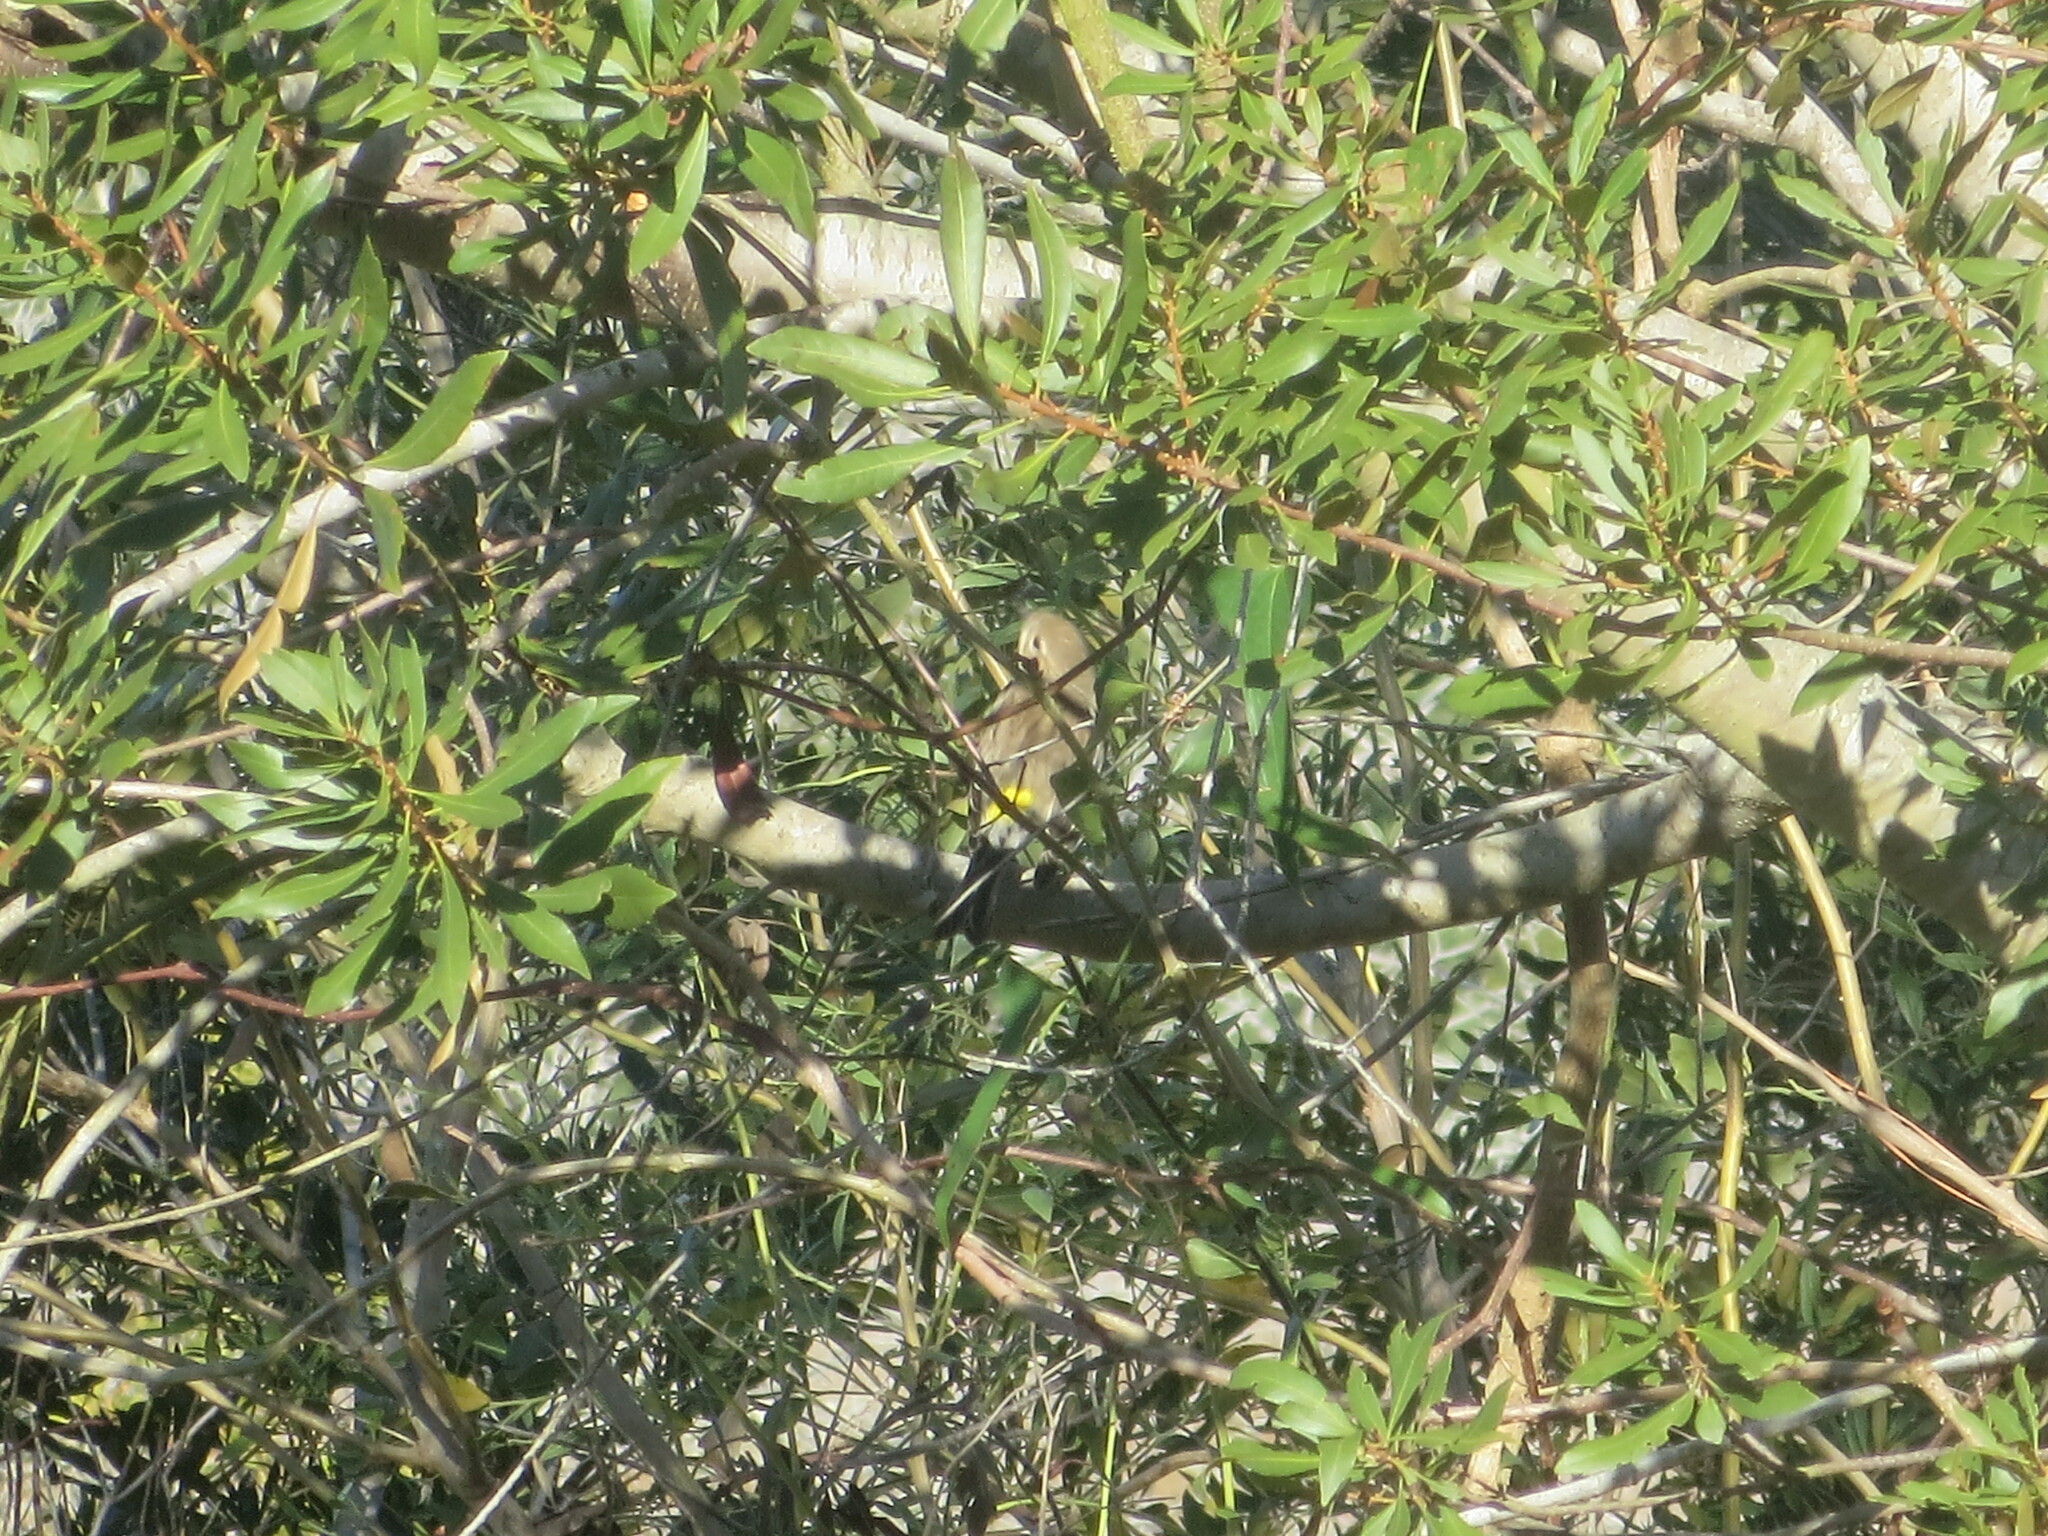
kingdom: Animalia
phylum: Chordata
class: Aves
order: Passeriformes
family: Parulidae
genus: Setophaga
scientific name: Setophaga coronata
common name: Myrtle warbler
